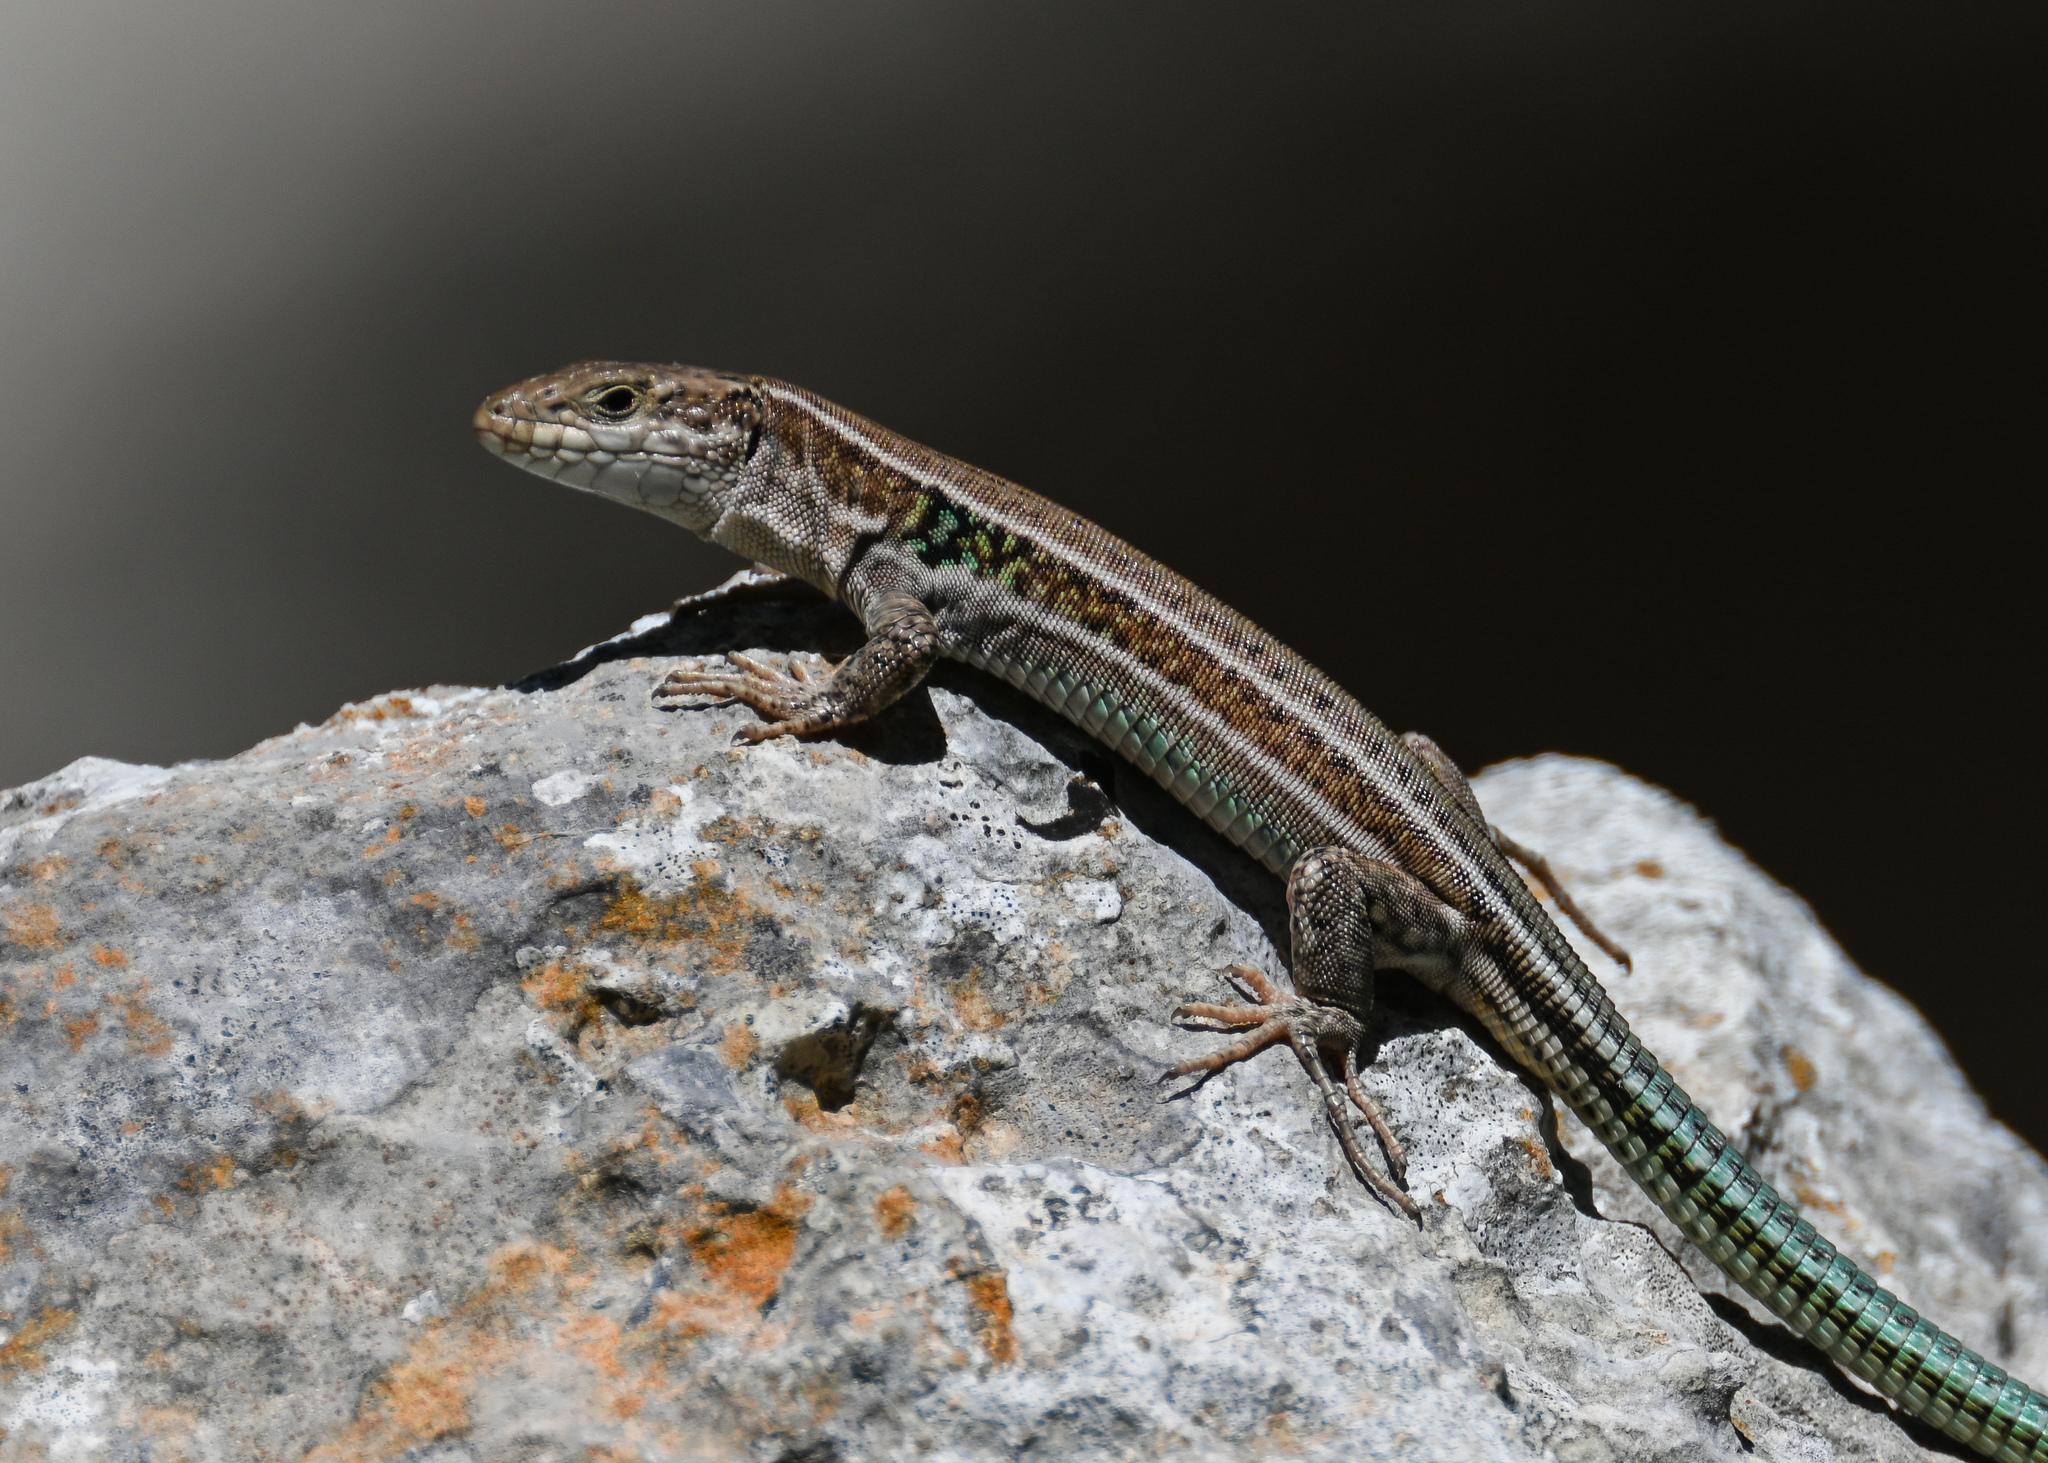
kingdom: Animalia
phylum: Chordata
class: Squamata
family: Lacertidae
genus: Podarcis
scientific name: Podarcis cretensis
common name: Cretan wall lizard
